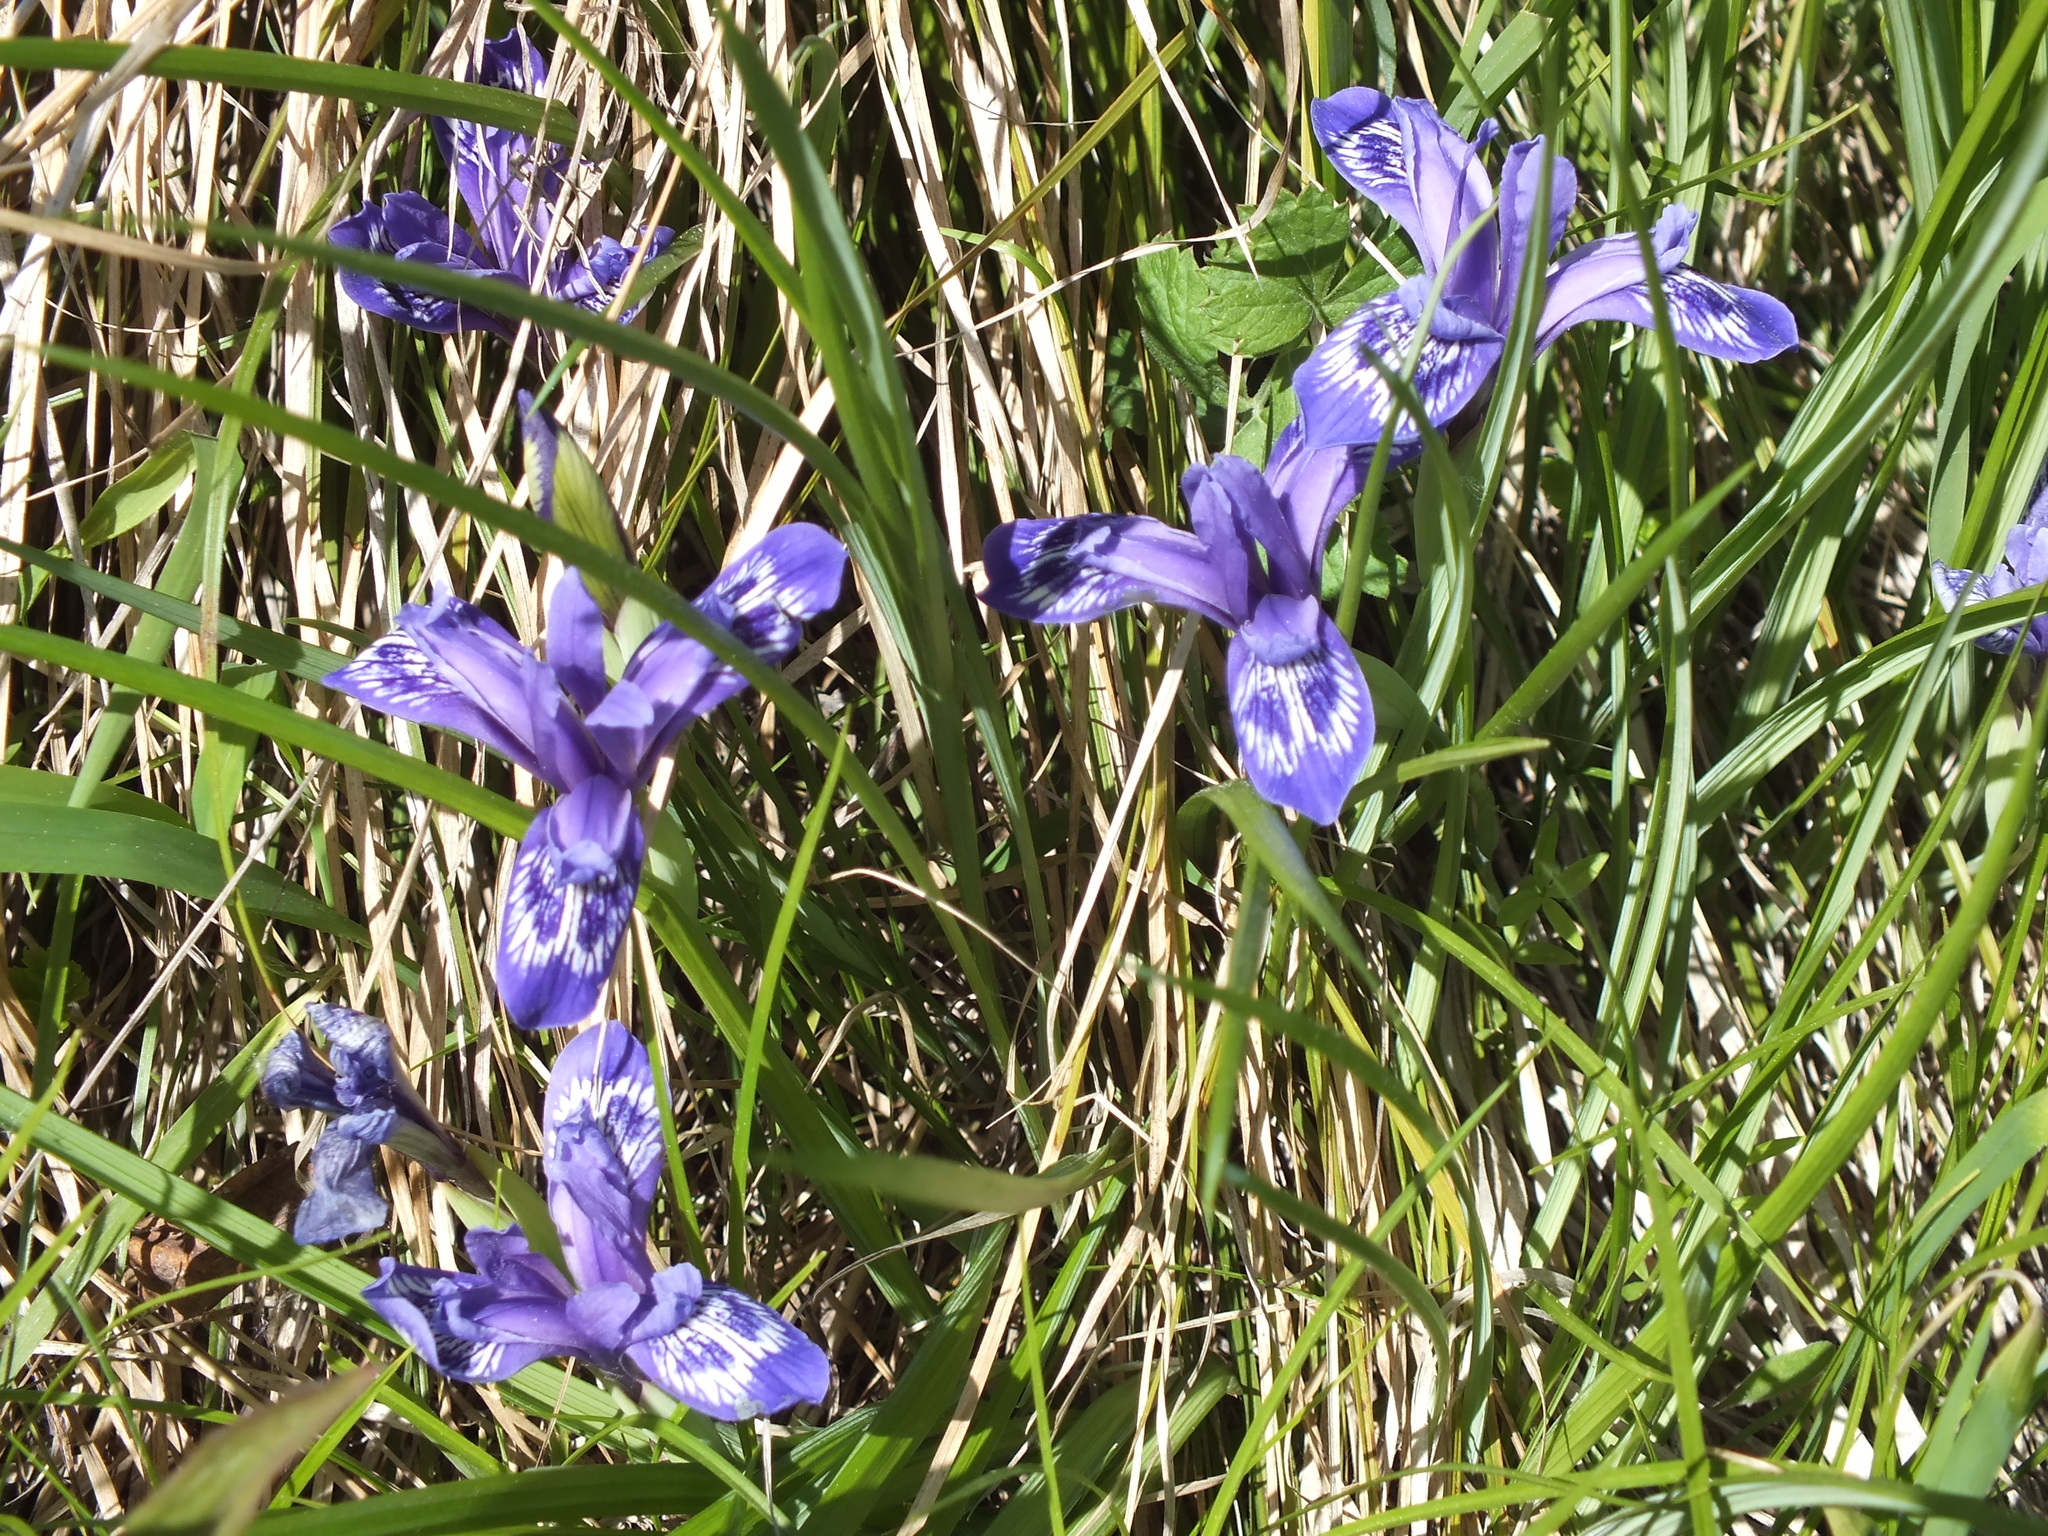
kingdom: Plantae
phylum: Tracheophyta
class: Liliopsida
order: Asparagales
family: Iridaceae
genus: Iris
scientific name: Iris ruthenica
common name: Purple-bract iris
